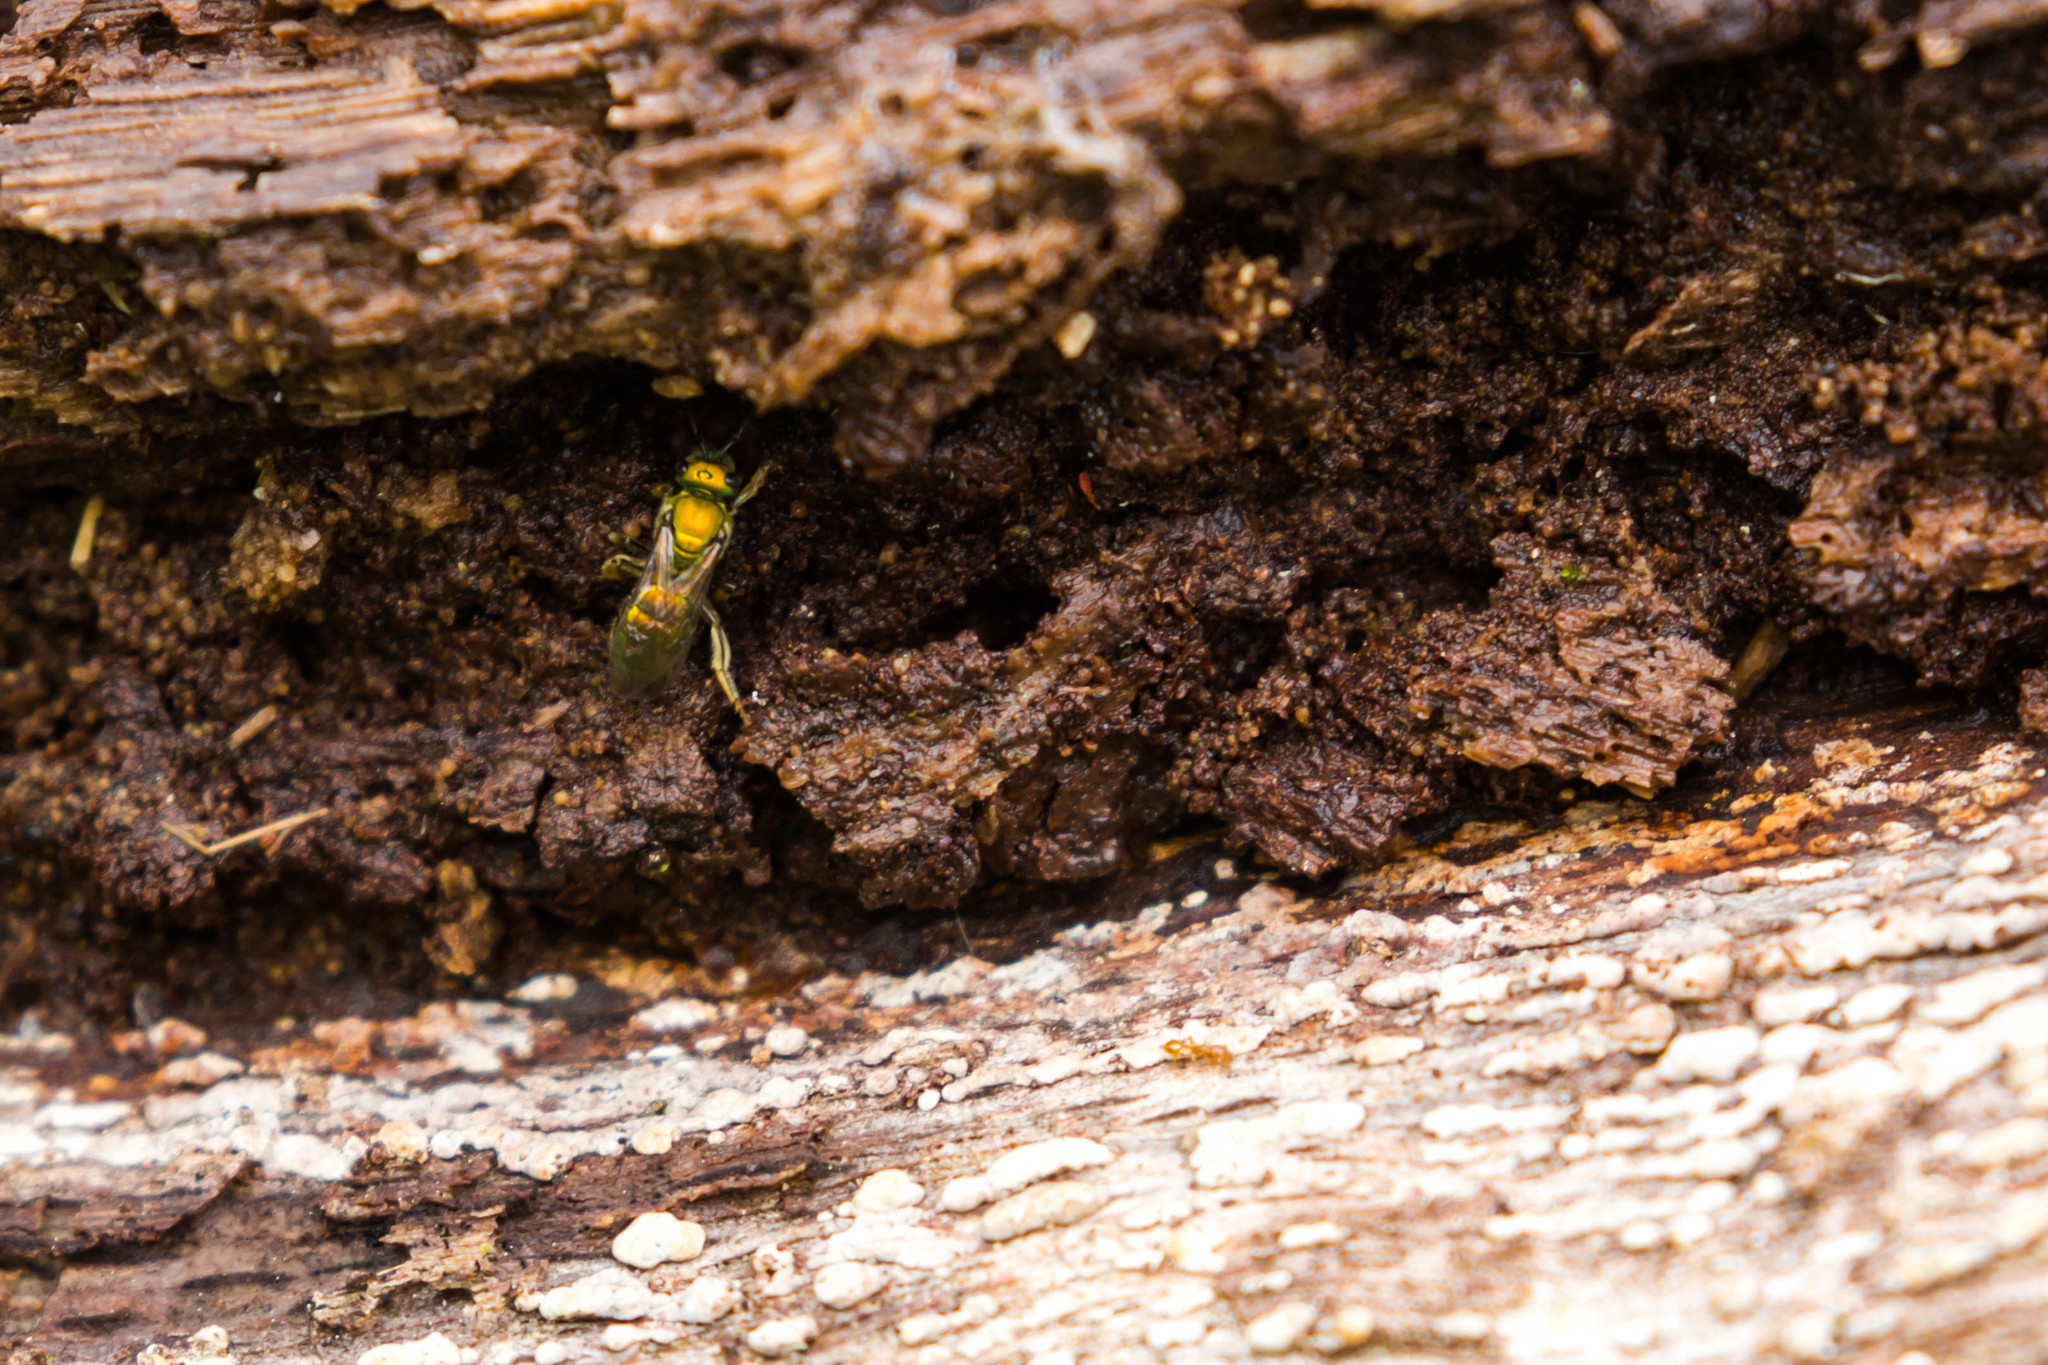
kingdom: Animalia
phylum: Arthropoda
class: Insecta
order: Hymenoptera
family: Halictidae
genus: Augochlora
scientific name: Augochlora pura
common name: Pure green sweat bee
